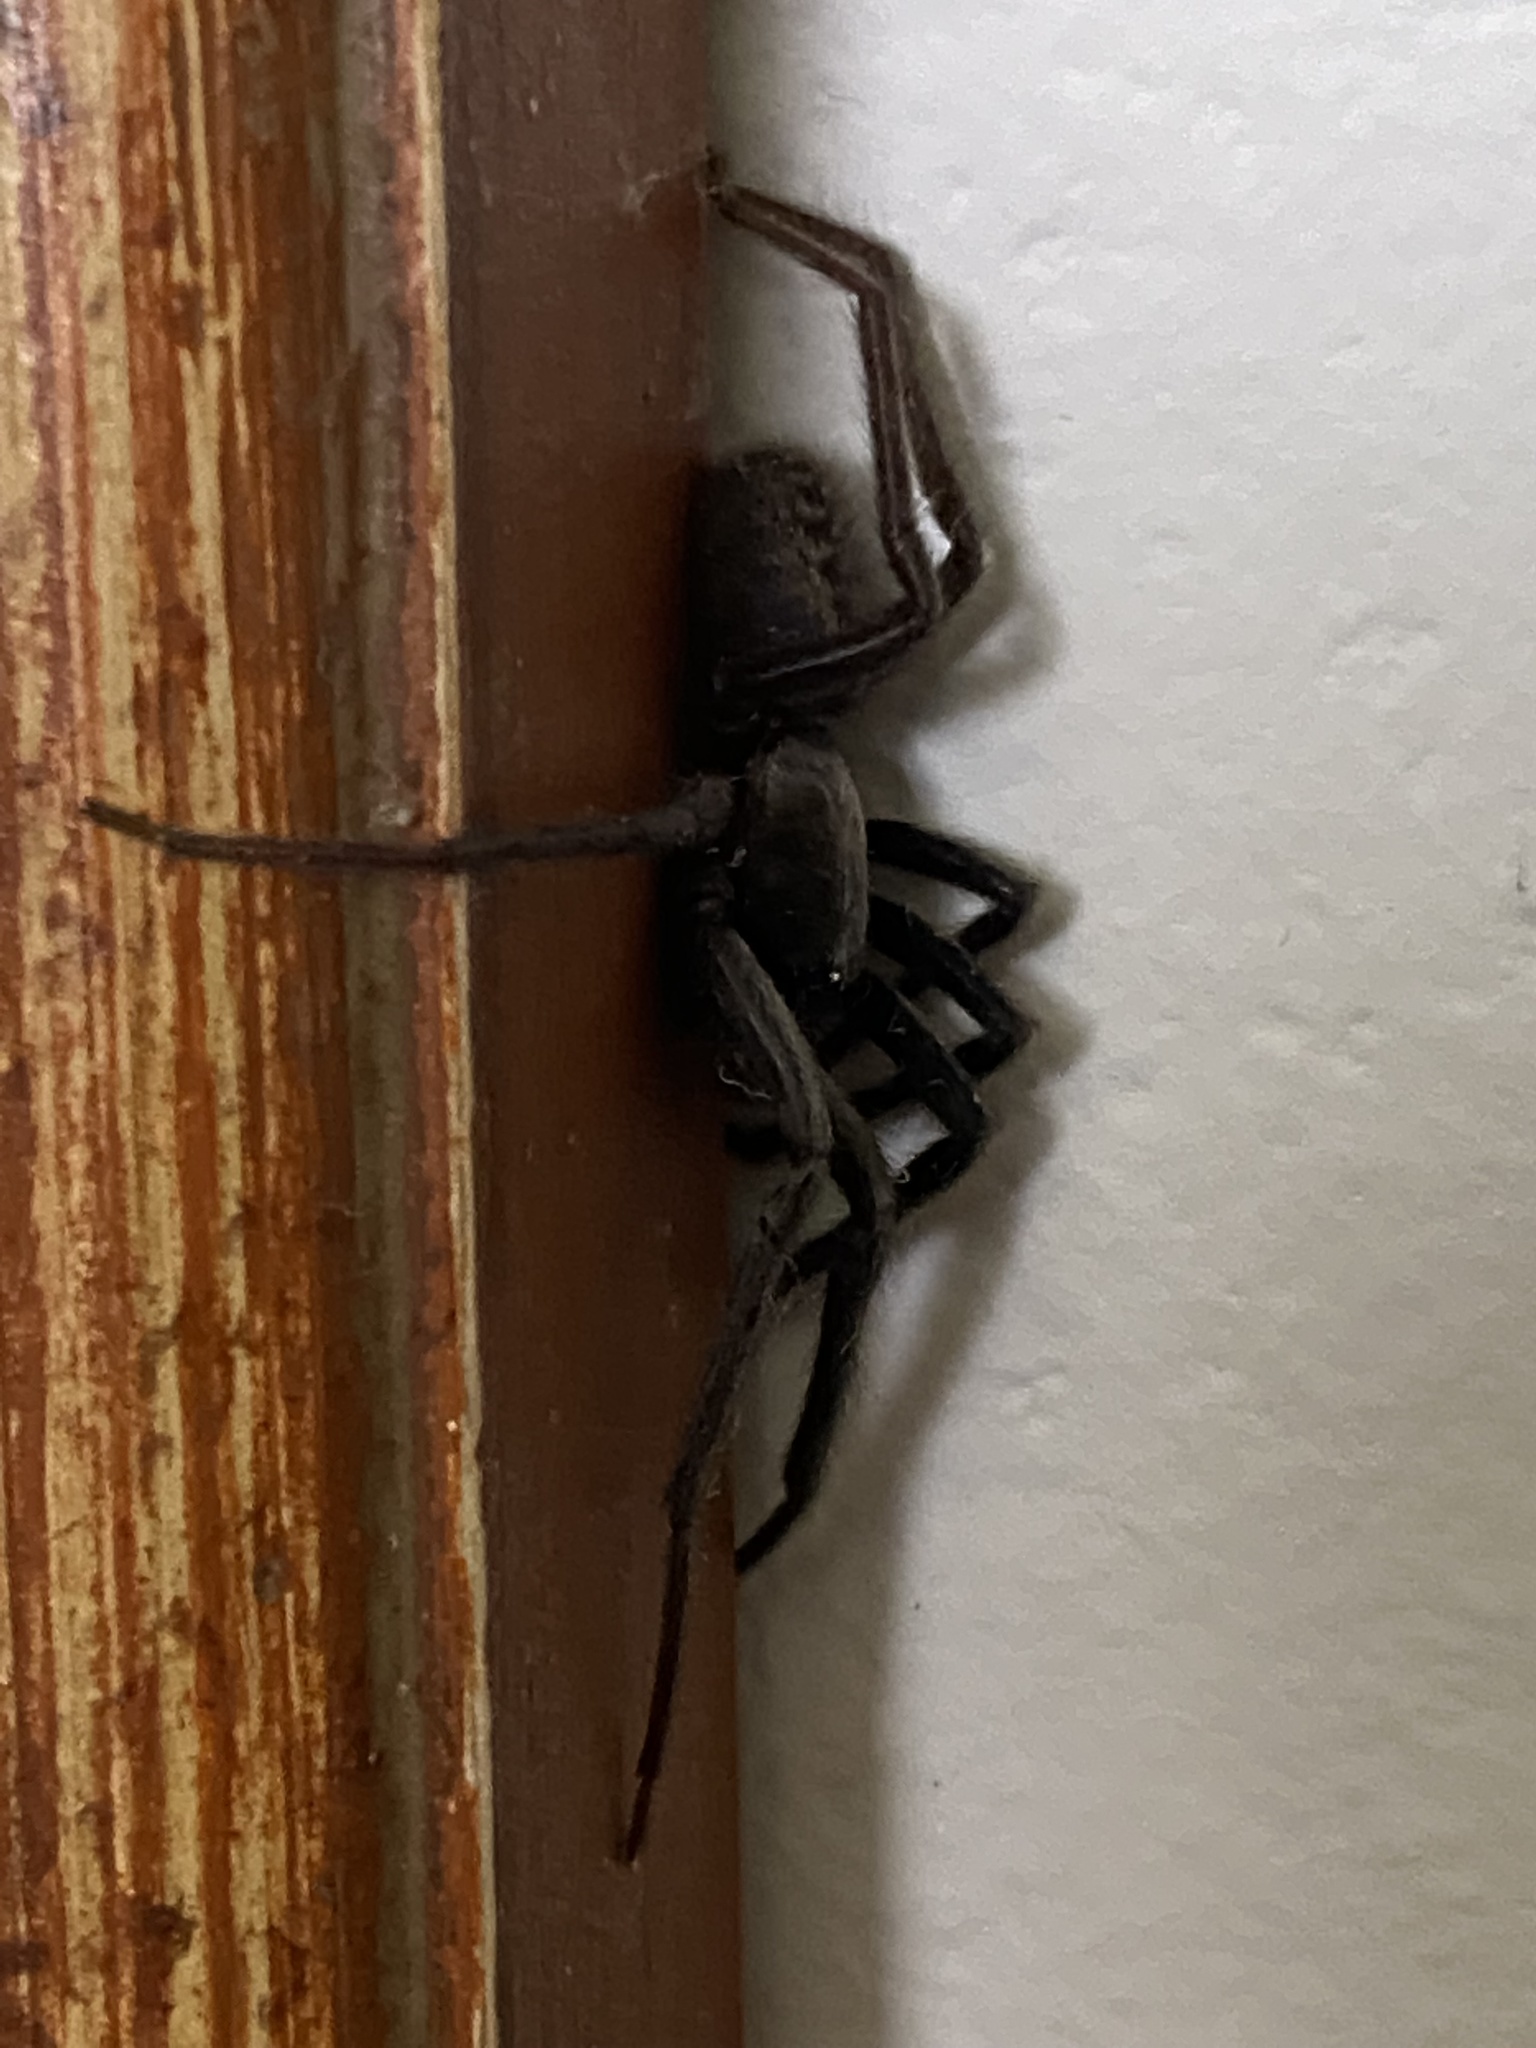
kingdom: Animalia
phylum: Arthropoda
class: Arachnida
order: Araneae
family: Segestriidae
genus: Segestria
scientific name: Segestria florentina
